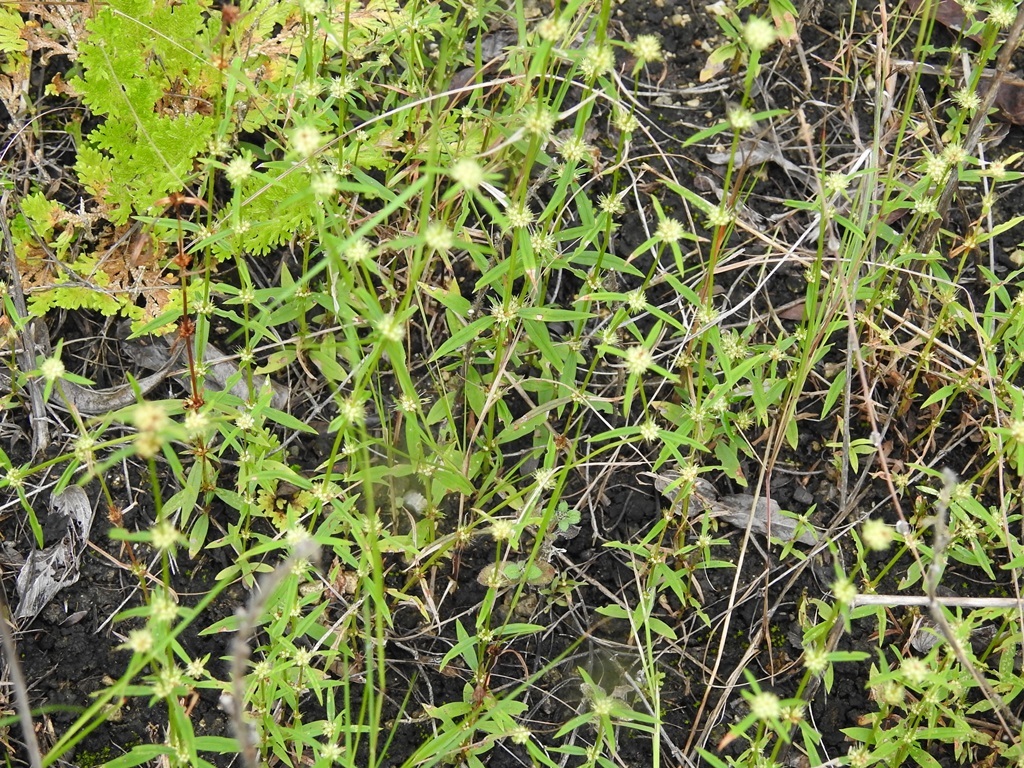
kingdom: Plantae
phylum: Tracheophyta
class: Magnoliopsida
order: Gentianales
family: Rubiaceae
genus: Spermacoce
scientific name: Spermacoce verticillata
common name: Shrubby false buttonweed
